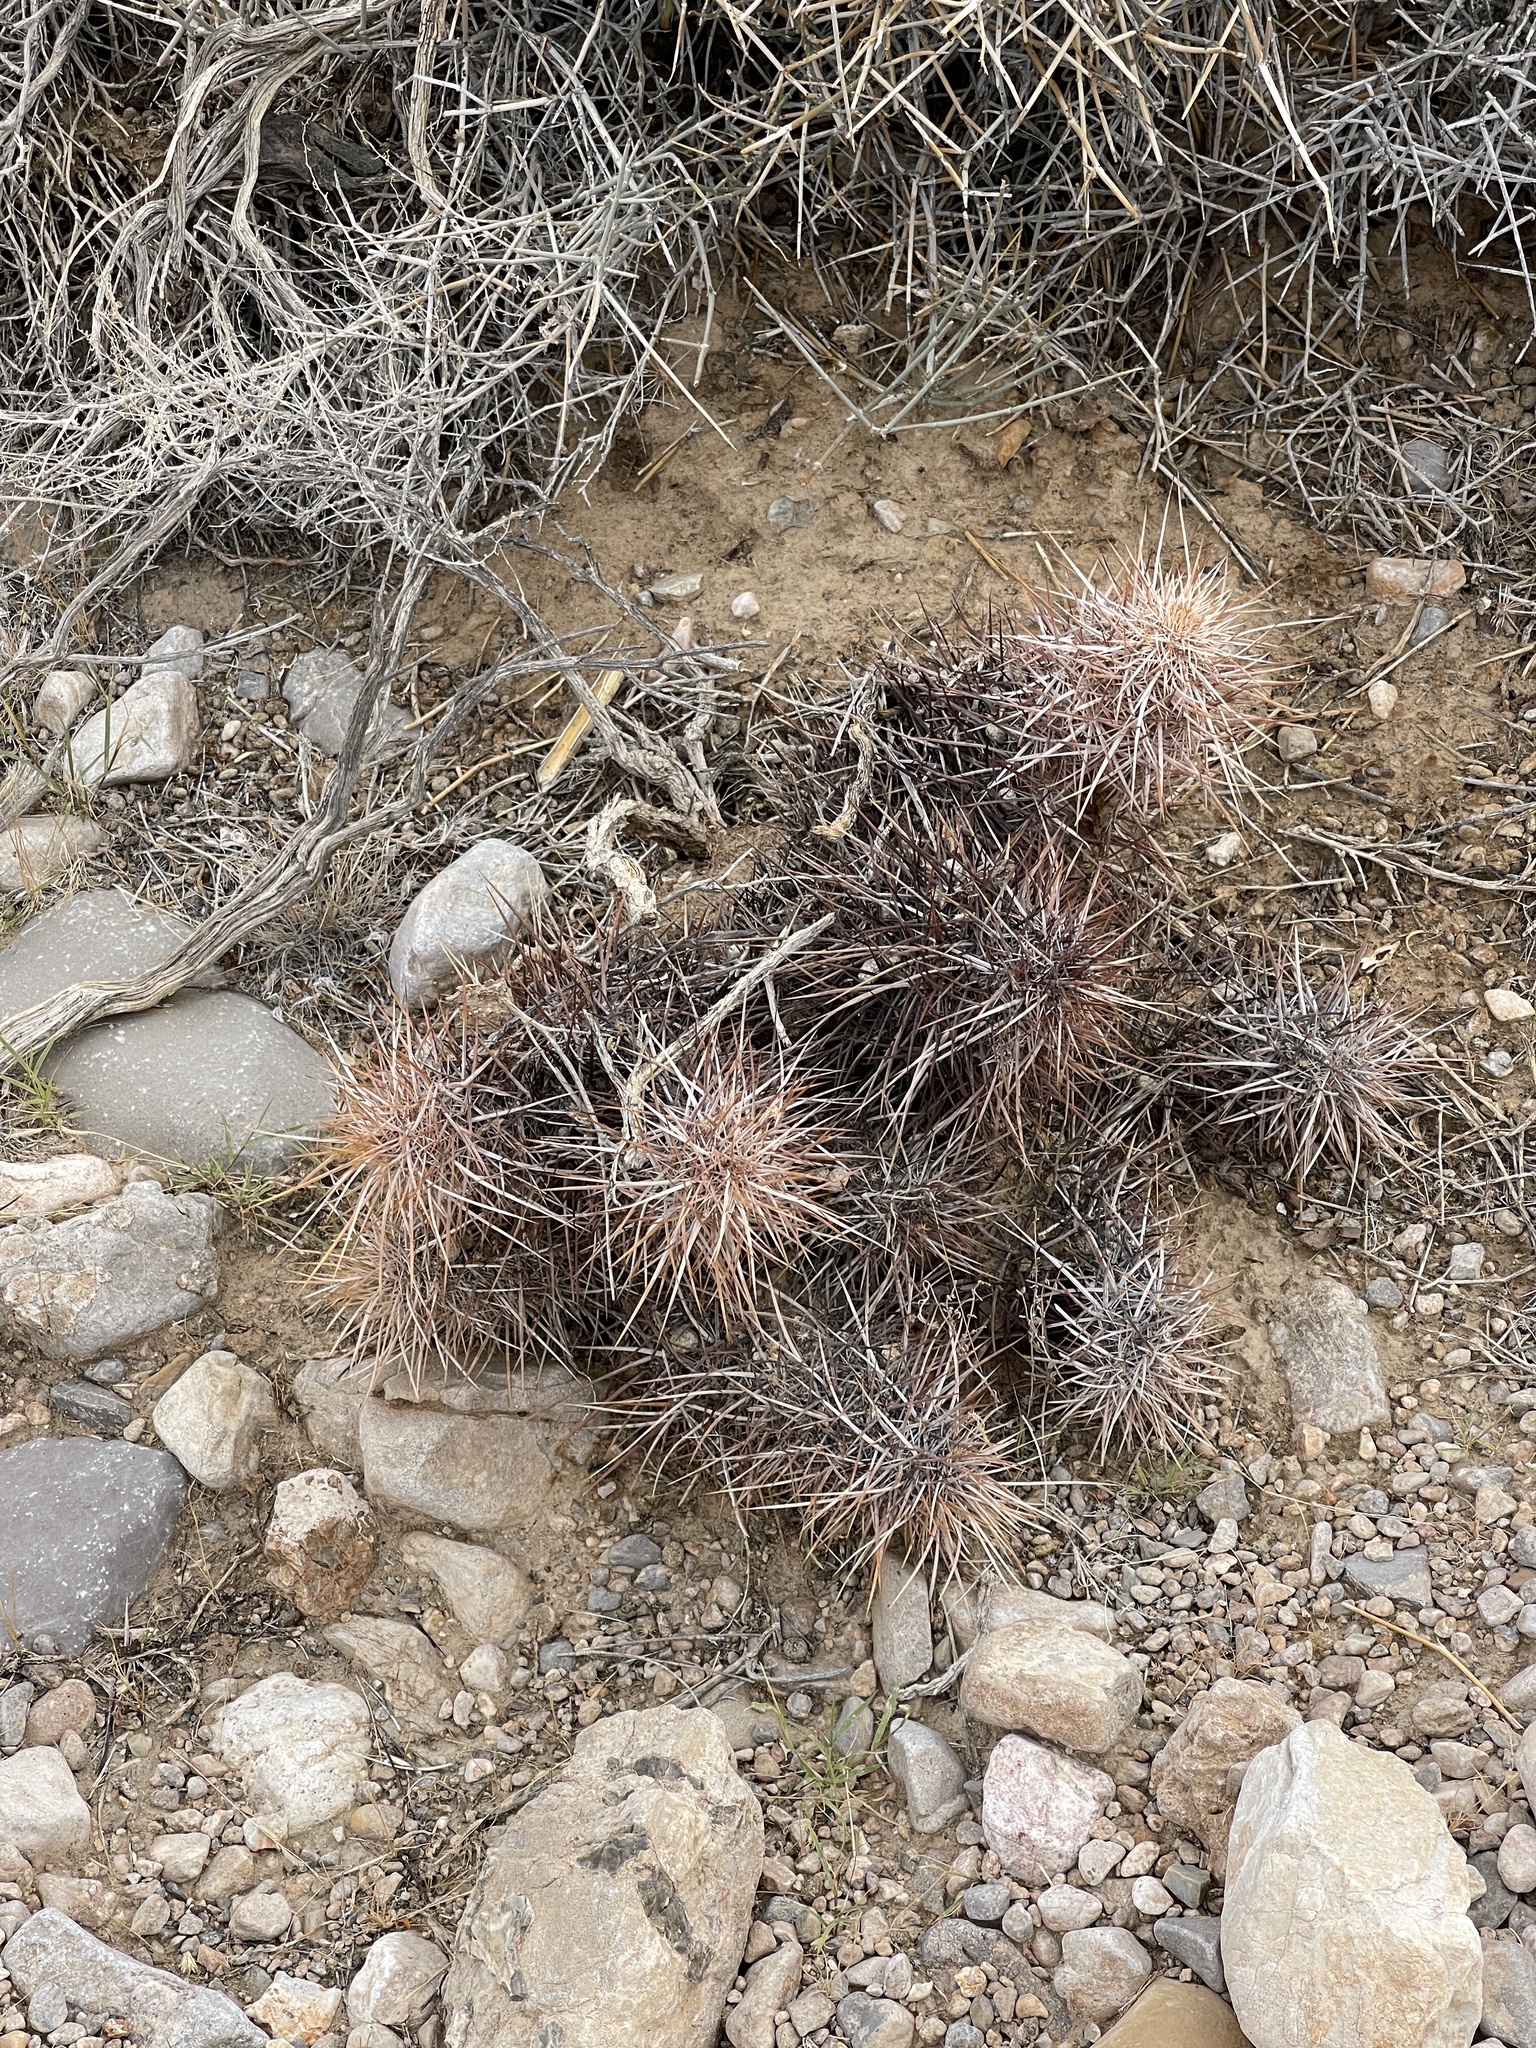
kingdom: Plantae
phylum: Tracheophyta
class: Magnoliopsida
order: Caryophyllales
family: Cactaceae
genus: Echinocereus
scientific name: Echinocereus engelmannii
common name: Engelmann's hedgehog cactus
